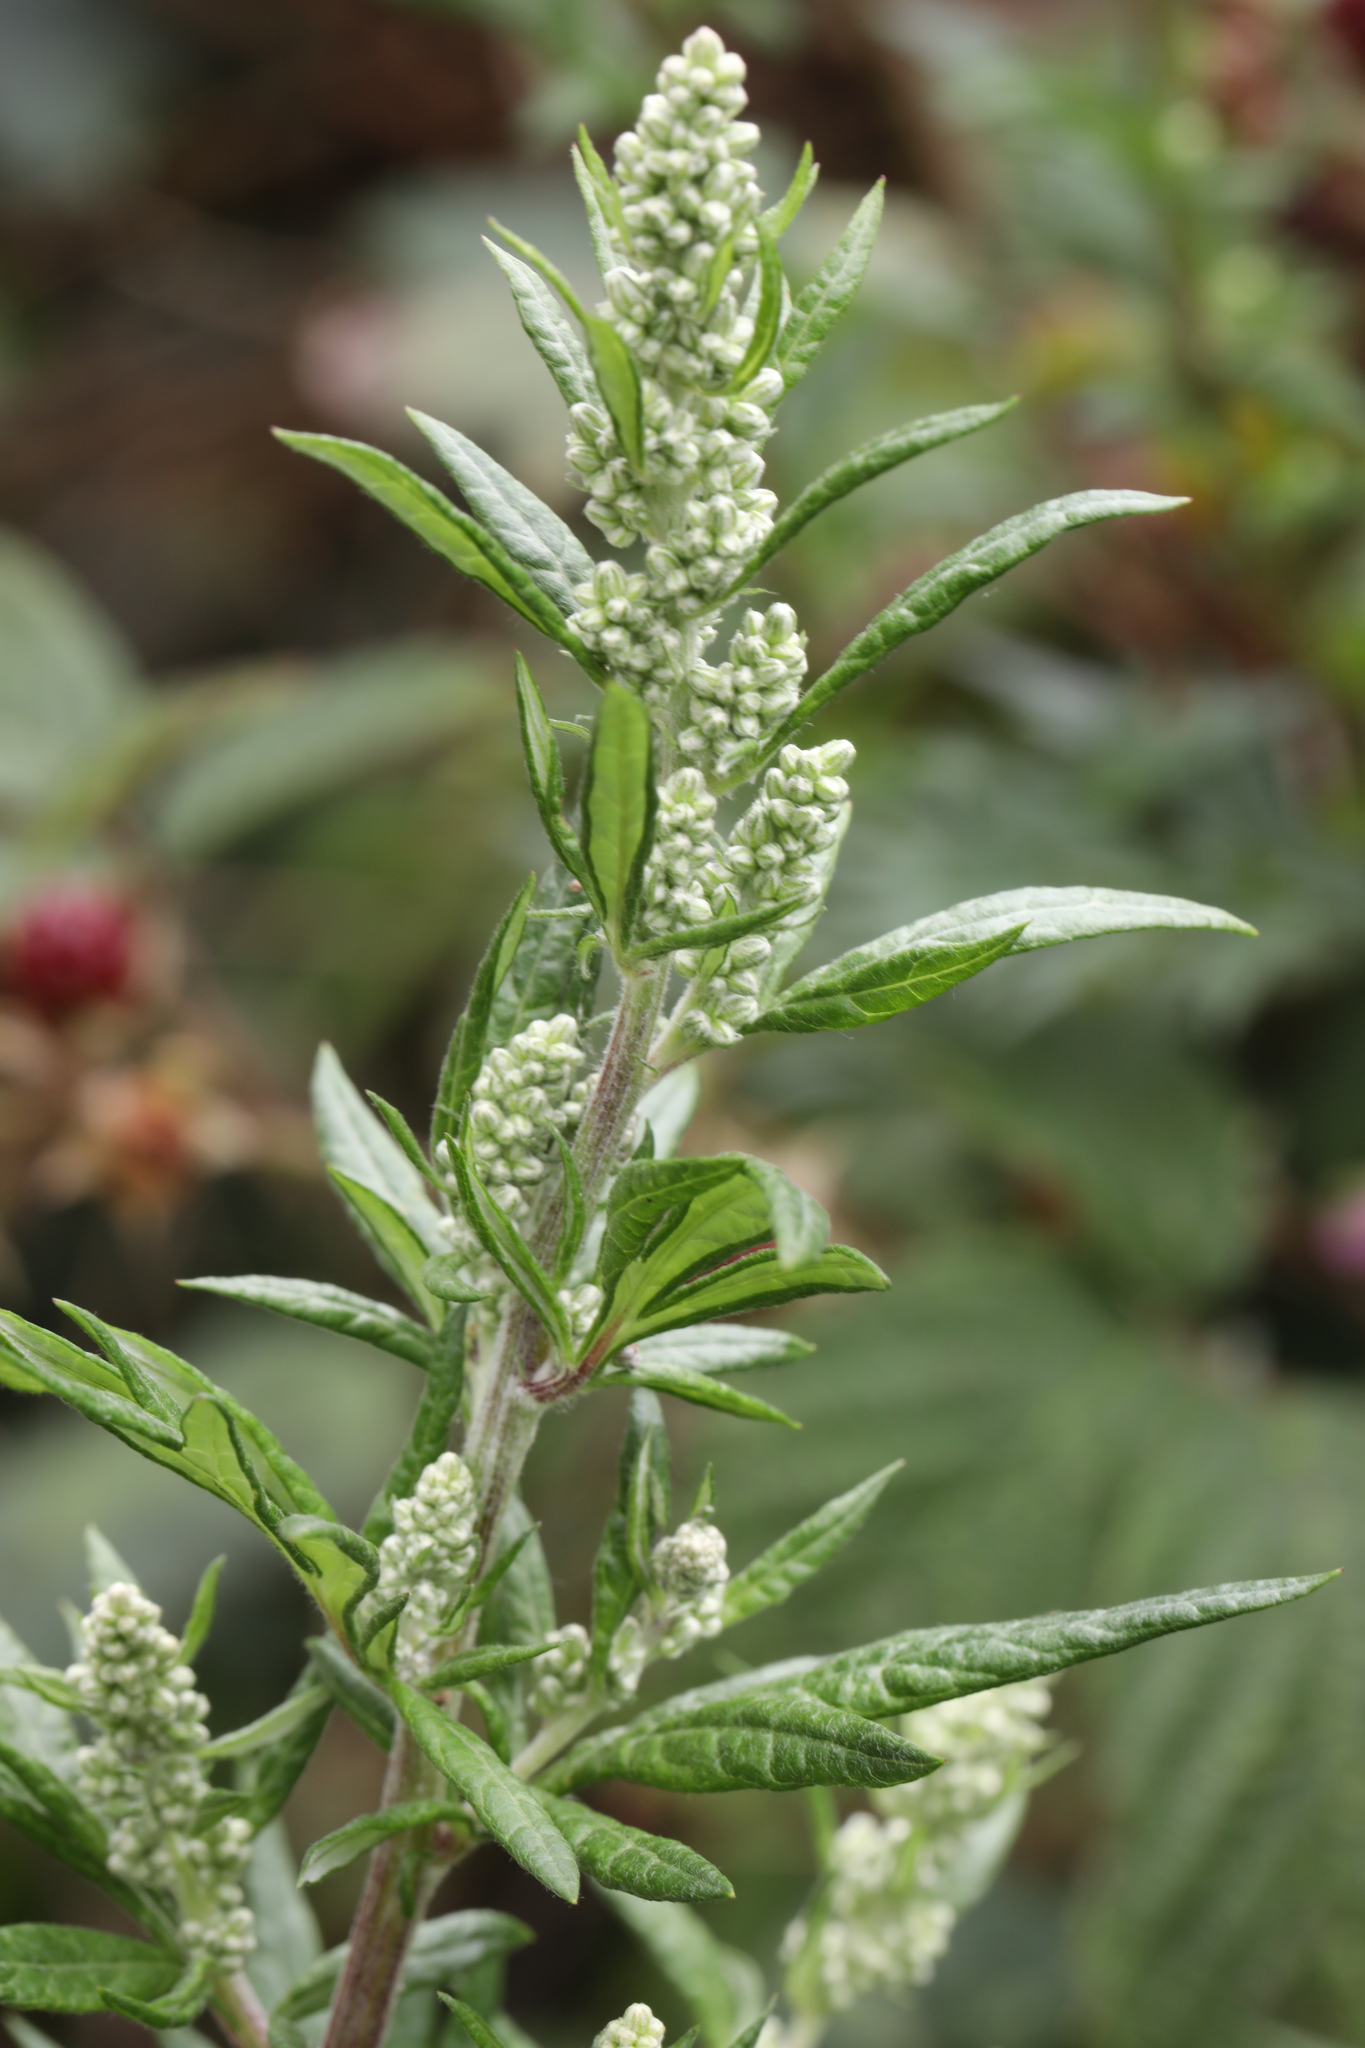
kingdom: Plantae
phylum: Tracheophyta
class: Magnoliopsida
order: Asterales
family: Asteraceae
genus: Artemisia
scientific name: Artemisia vulgaris
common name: Mugwort
